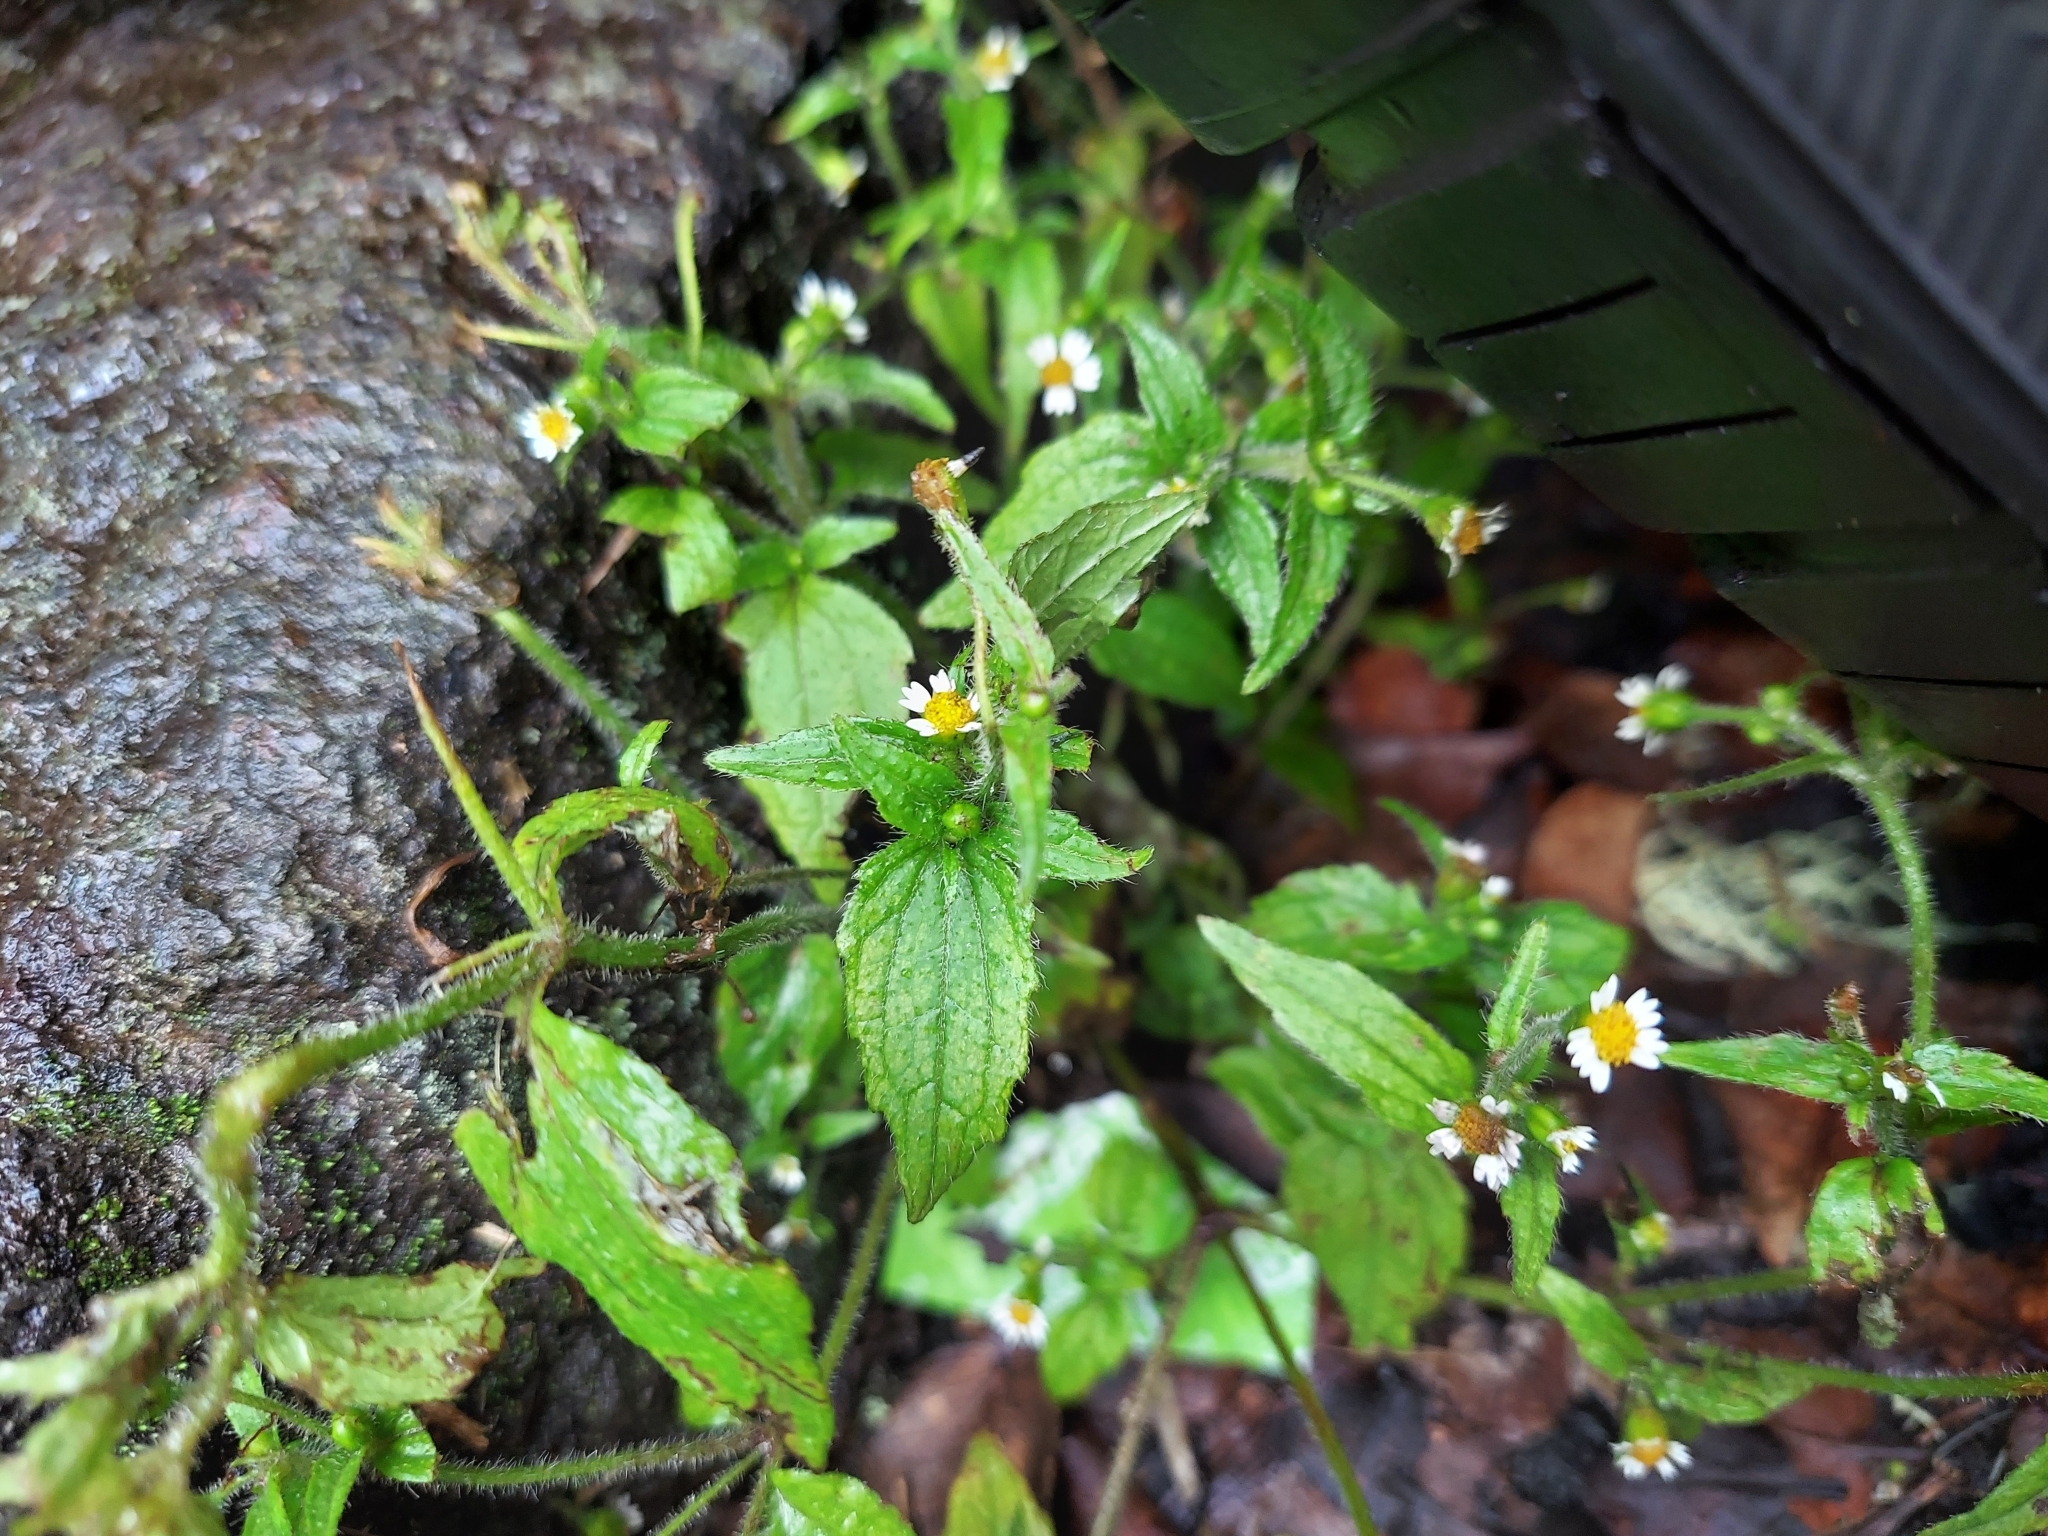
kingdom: Plantae
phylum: Tracheophyta
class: Magnoliopsida
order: Asterales
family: Asteraceae
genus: Galinsoga
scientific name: Galinsoga quadriradiata
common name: Shaggy soldier
